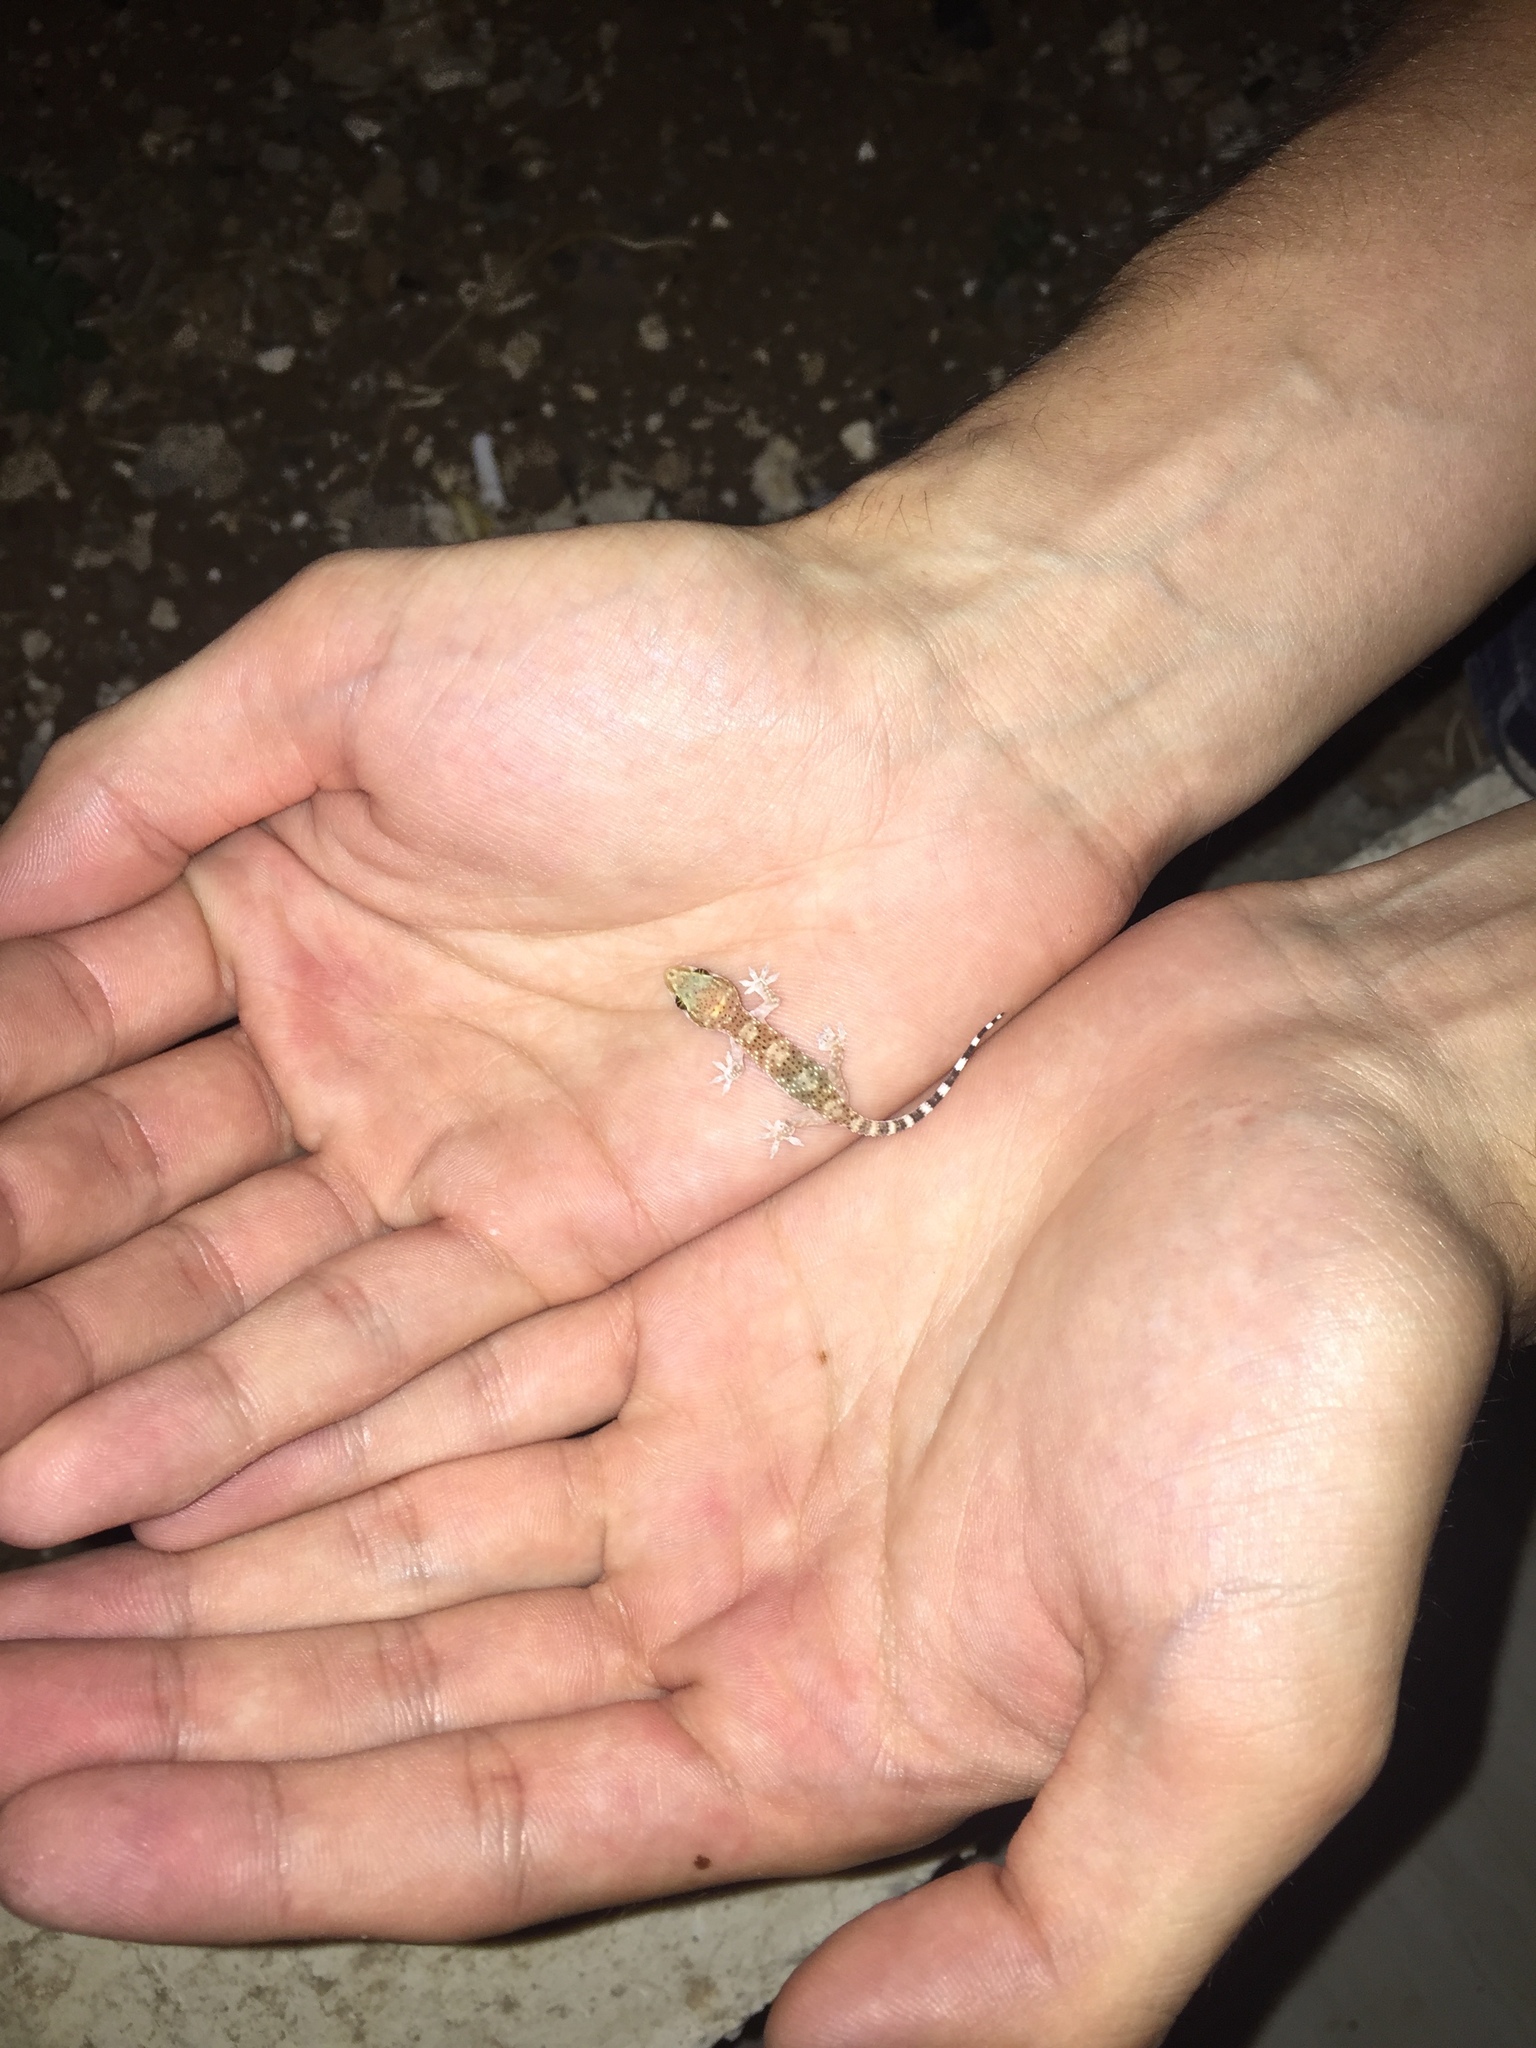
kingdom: Animalia
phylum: Chordata
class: Squamata
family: Gekkonidae
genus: Hemidactylus
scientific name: Hemidactylus turcicus
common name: Turkish gecko
